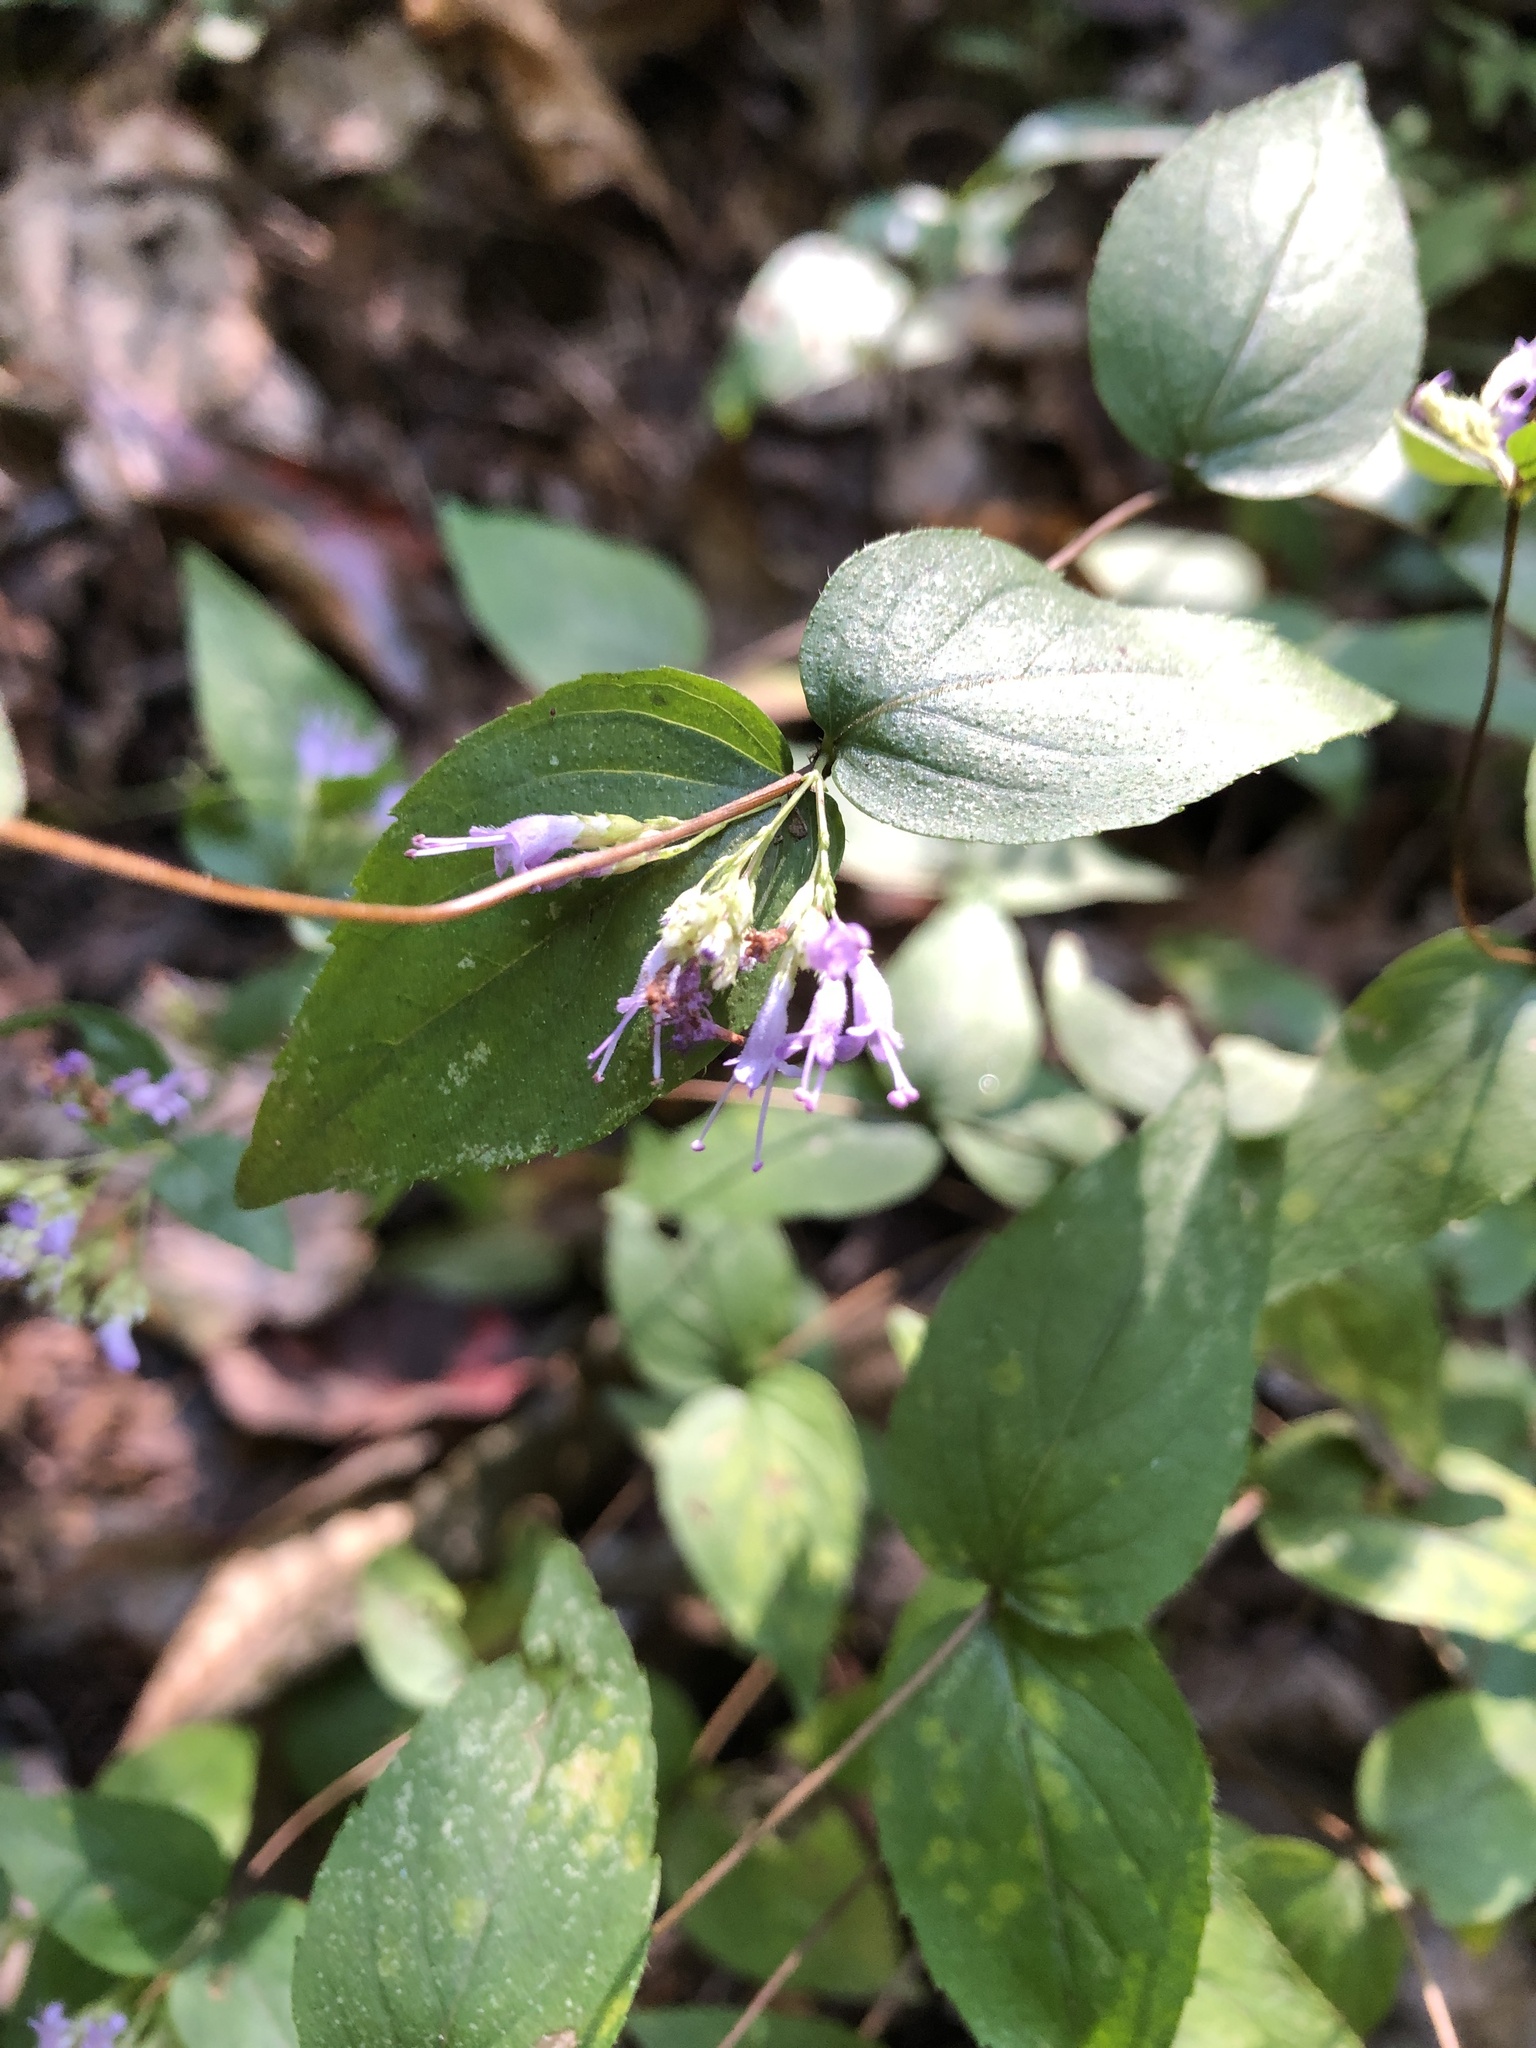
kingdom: Plantae
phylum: Tracheophyta
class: Magnoliopsida
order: Lamiales
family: Lamiaceae
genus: Cunila
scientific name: Cunila origanoides
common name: American dittany
